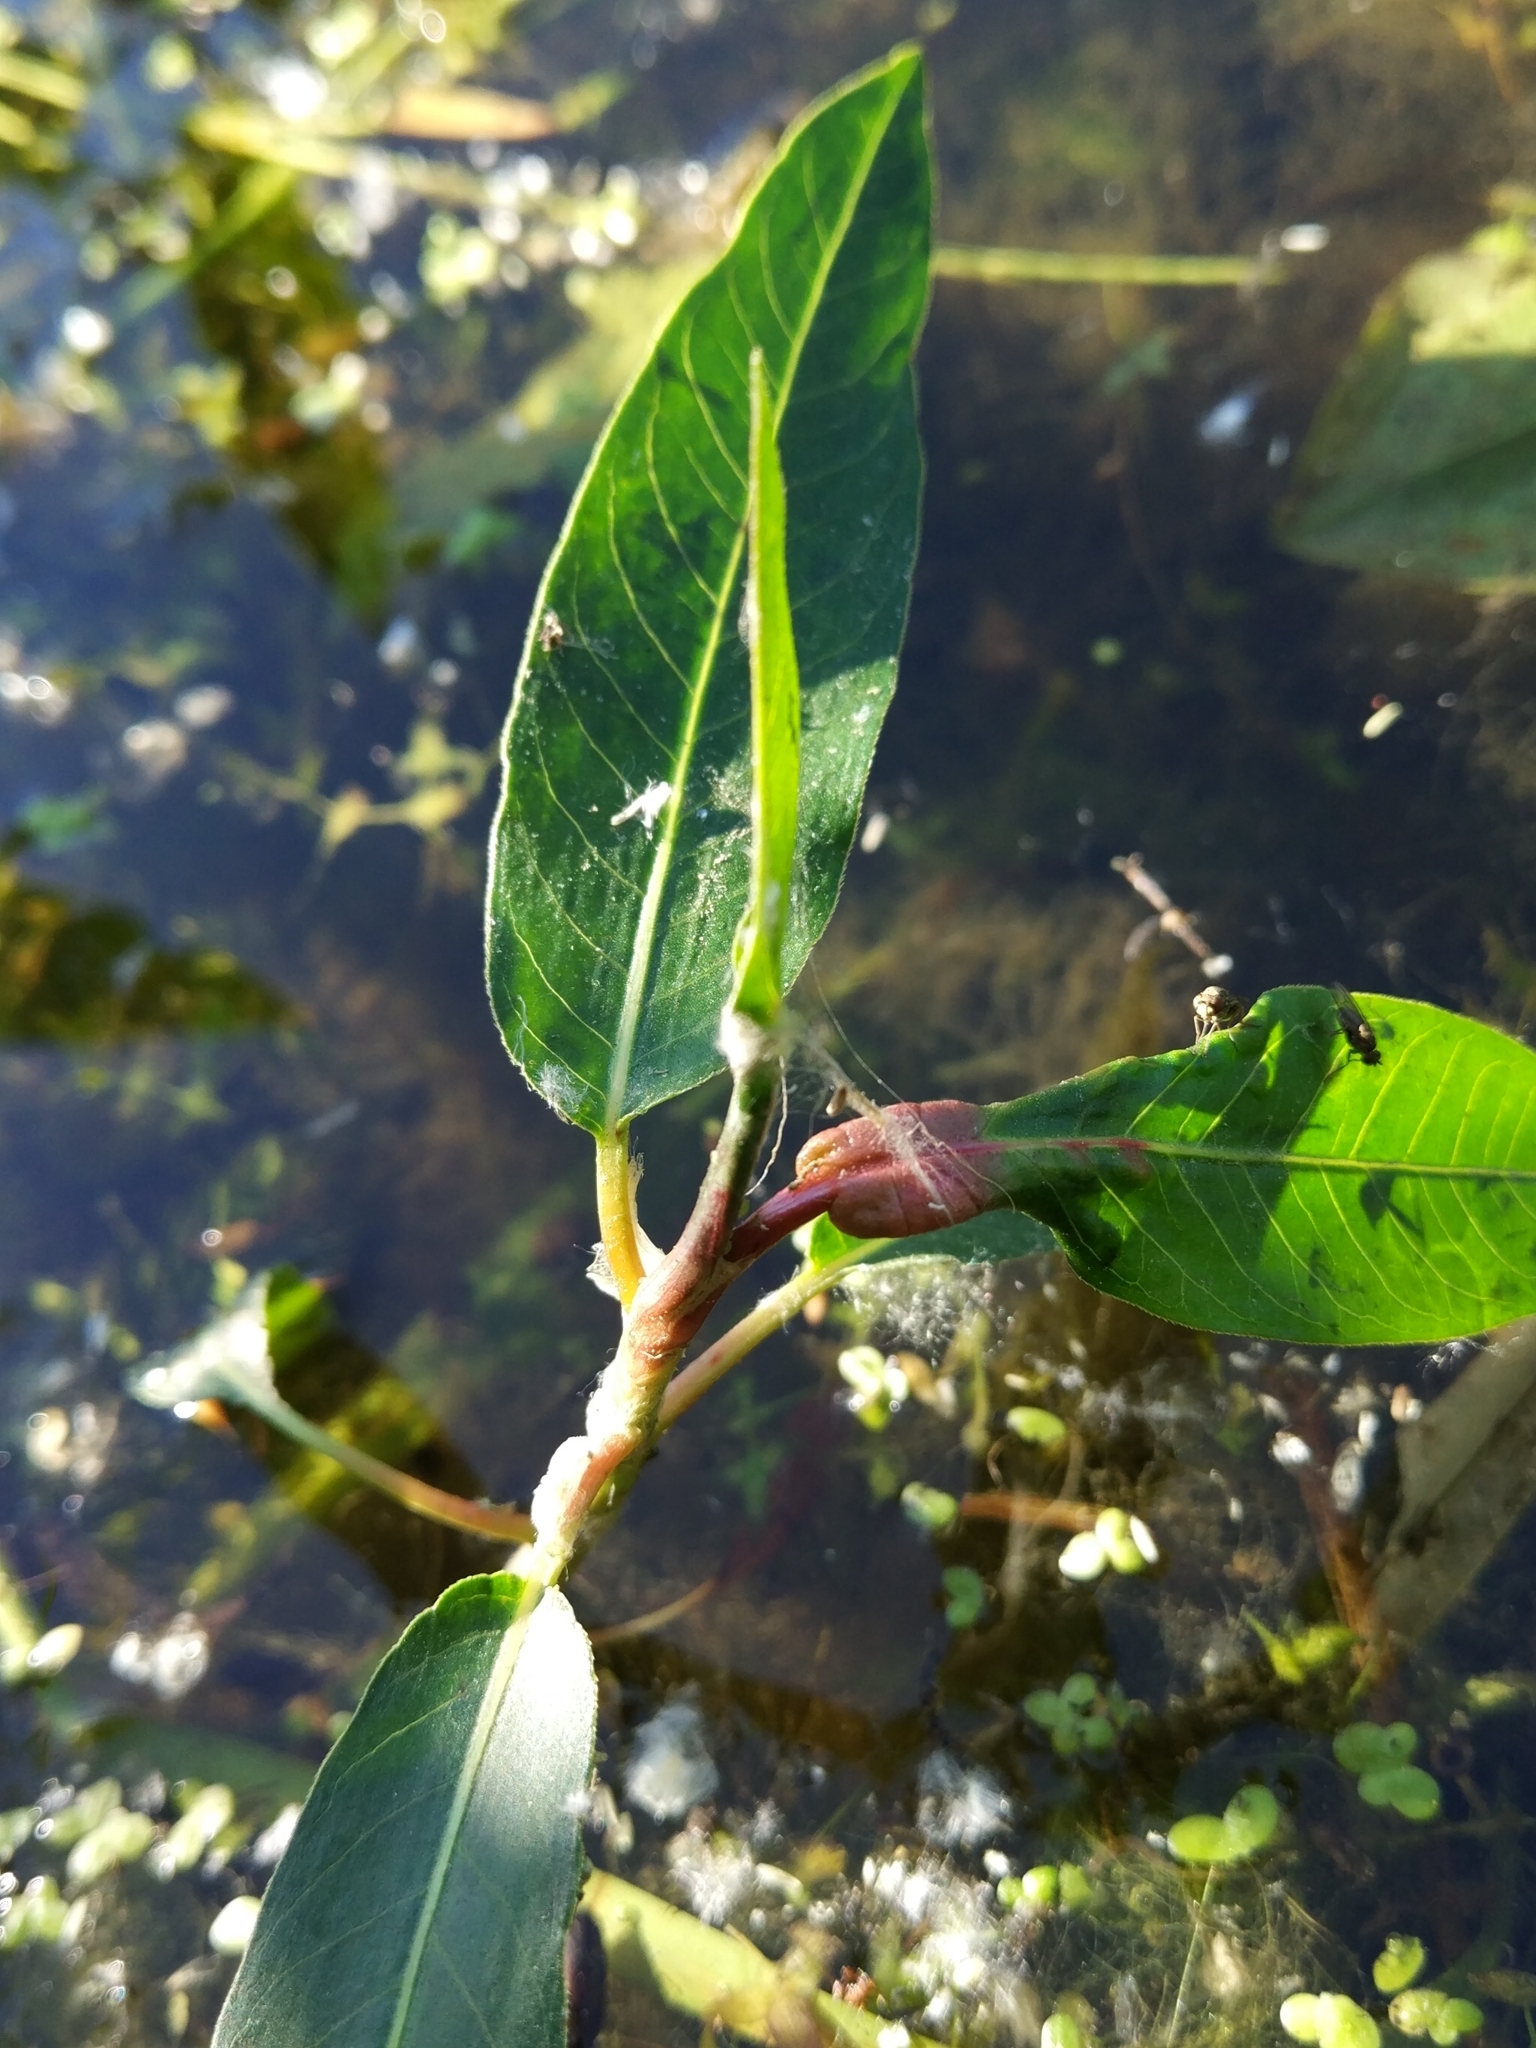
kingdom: Plantae
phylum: Tracheophyta
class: Magnoliopsida
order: Caryophyllales
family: Polygonaceae
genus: Persicaria
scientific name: Persicaria amphibia
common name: Amphibious bistort
